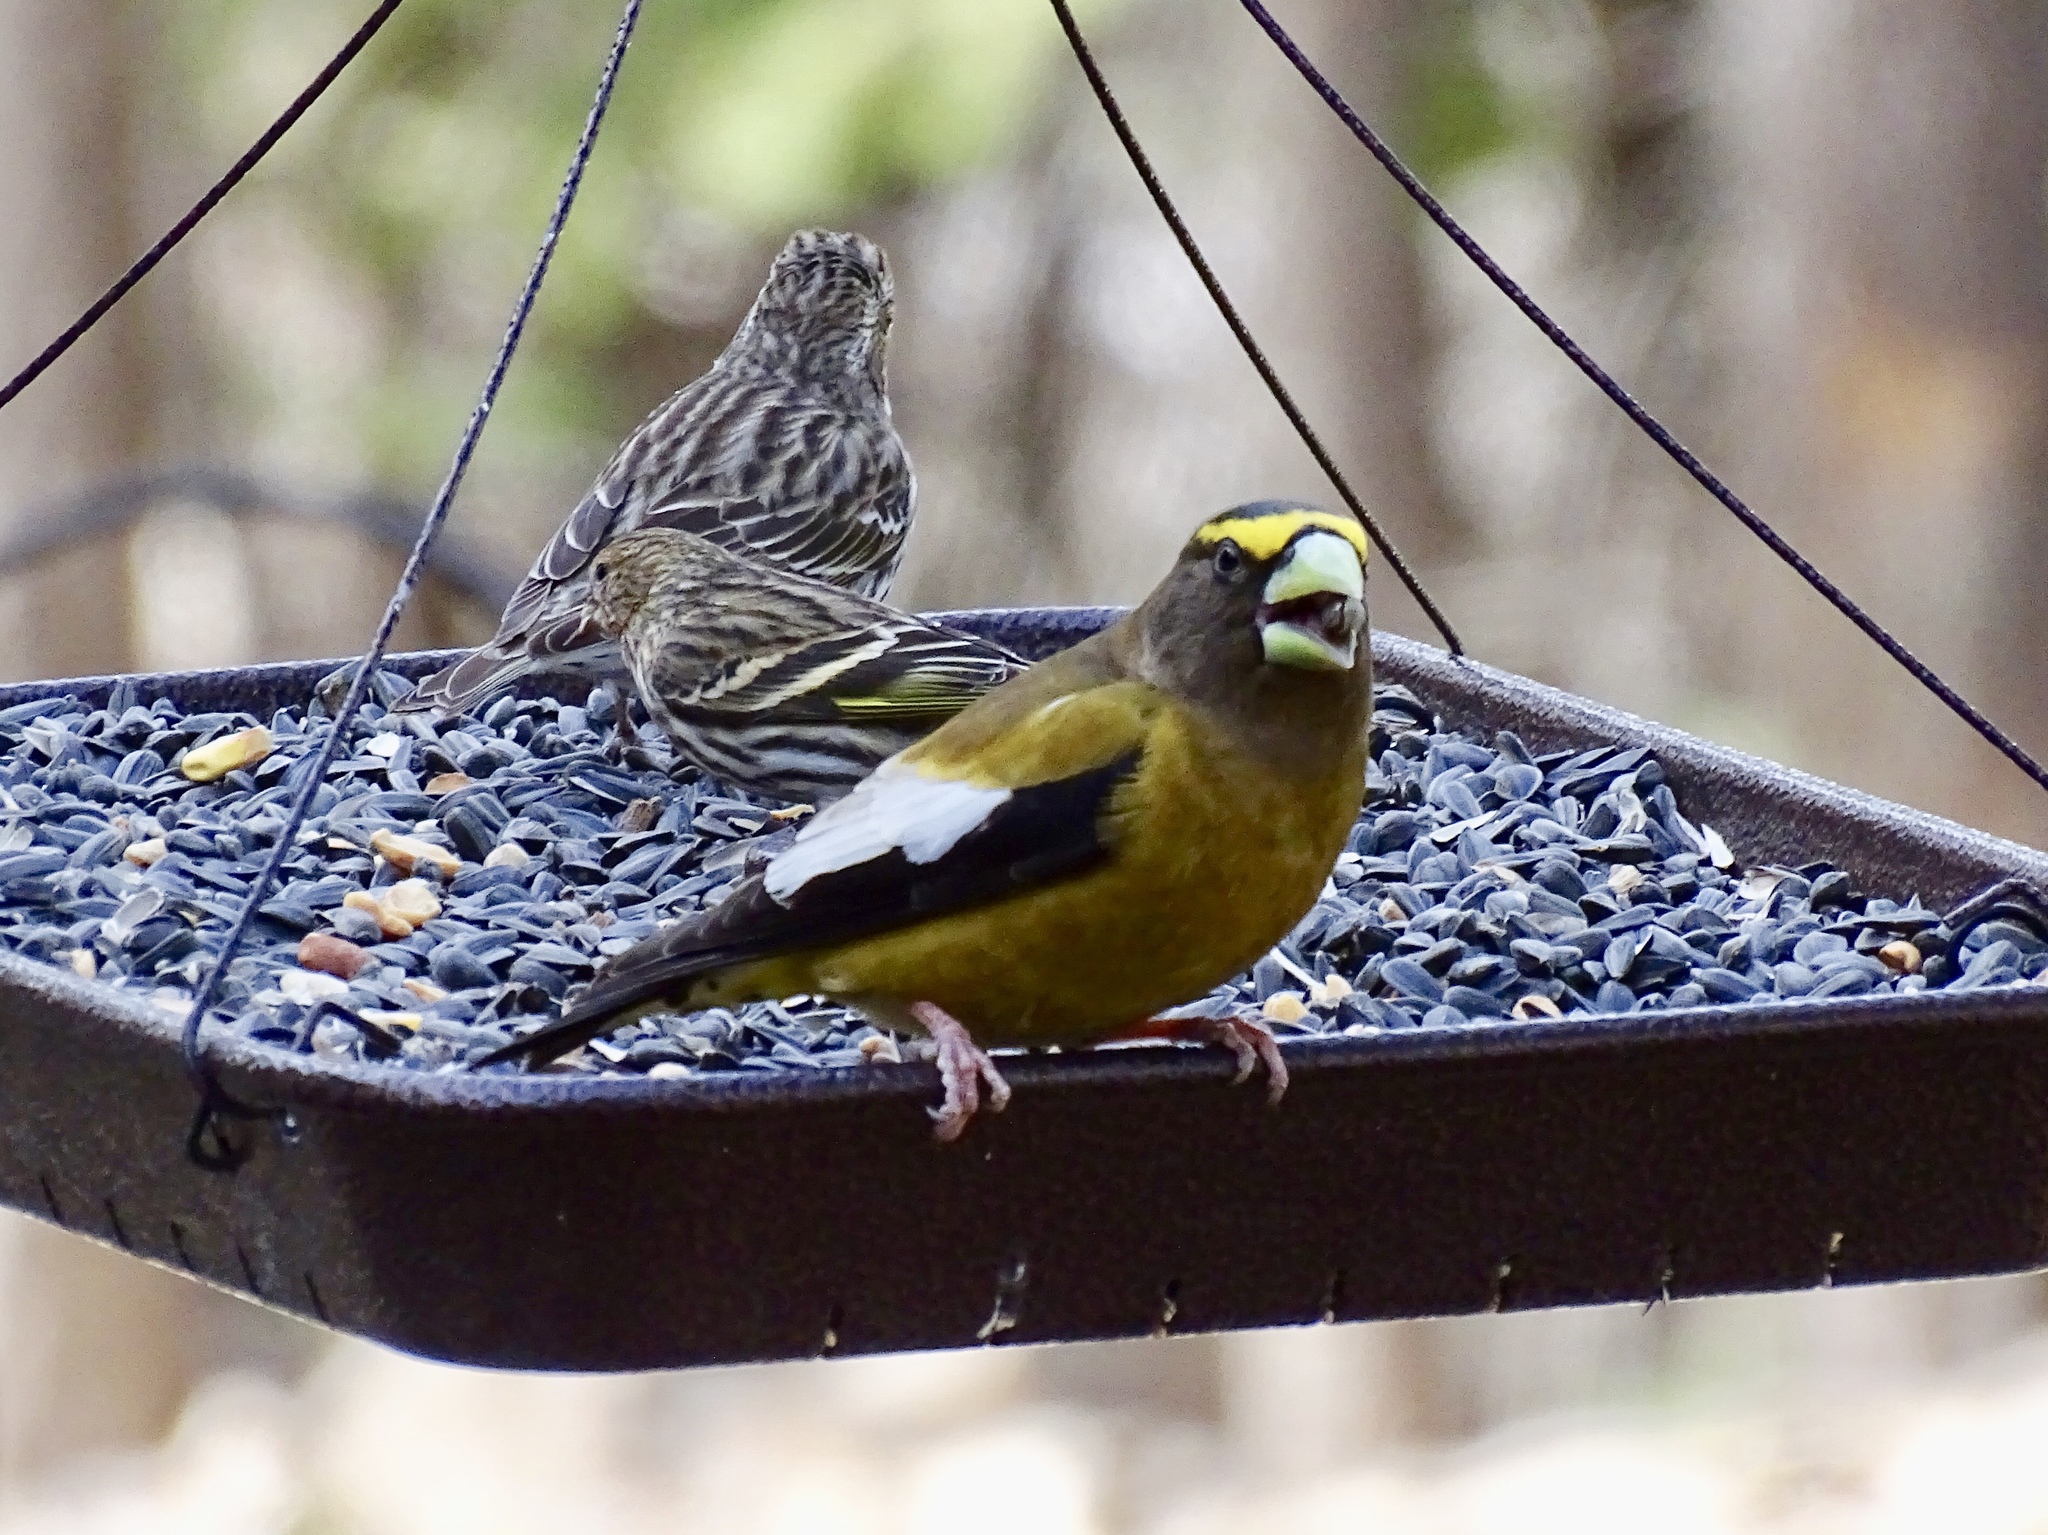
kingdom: Animalia
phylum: Chordata
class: Aves
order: Passeriformes
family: Fringillidae
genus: Hesperiphona
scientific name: Hesperiphona vespertina
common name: Evening grosbeak
